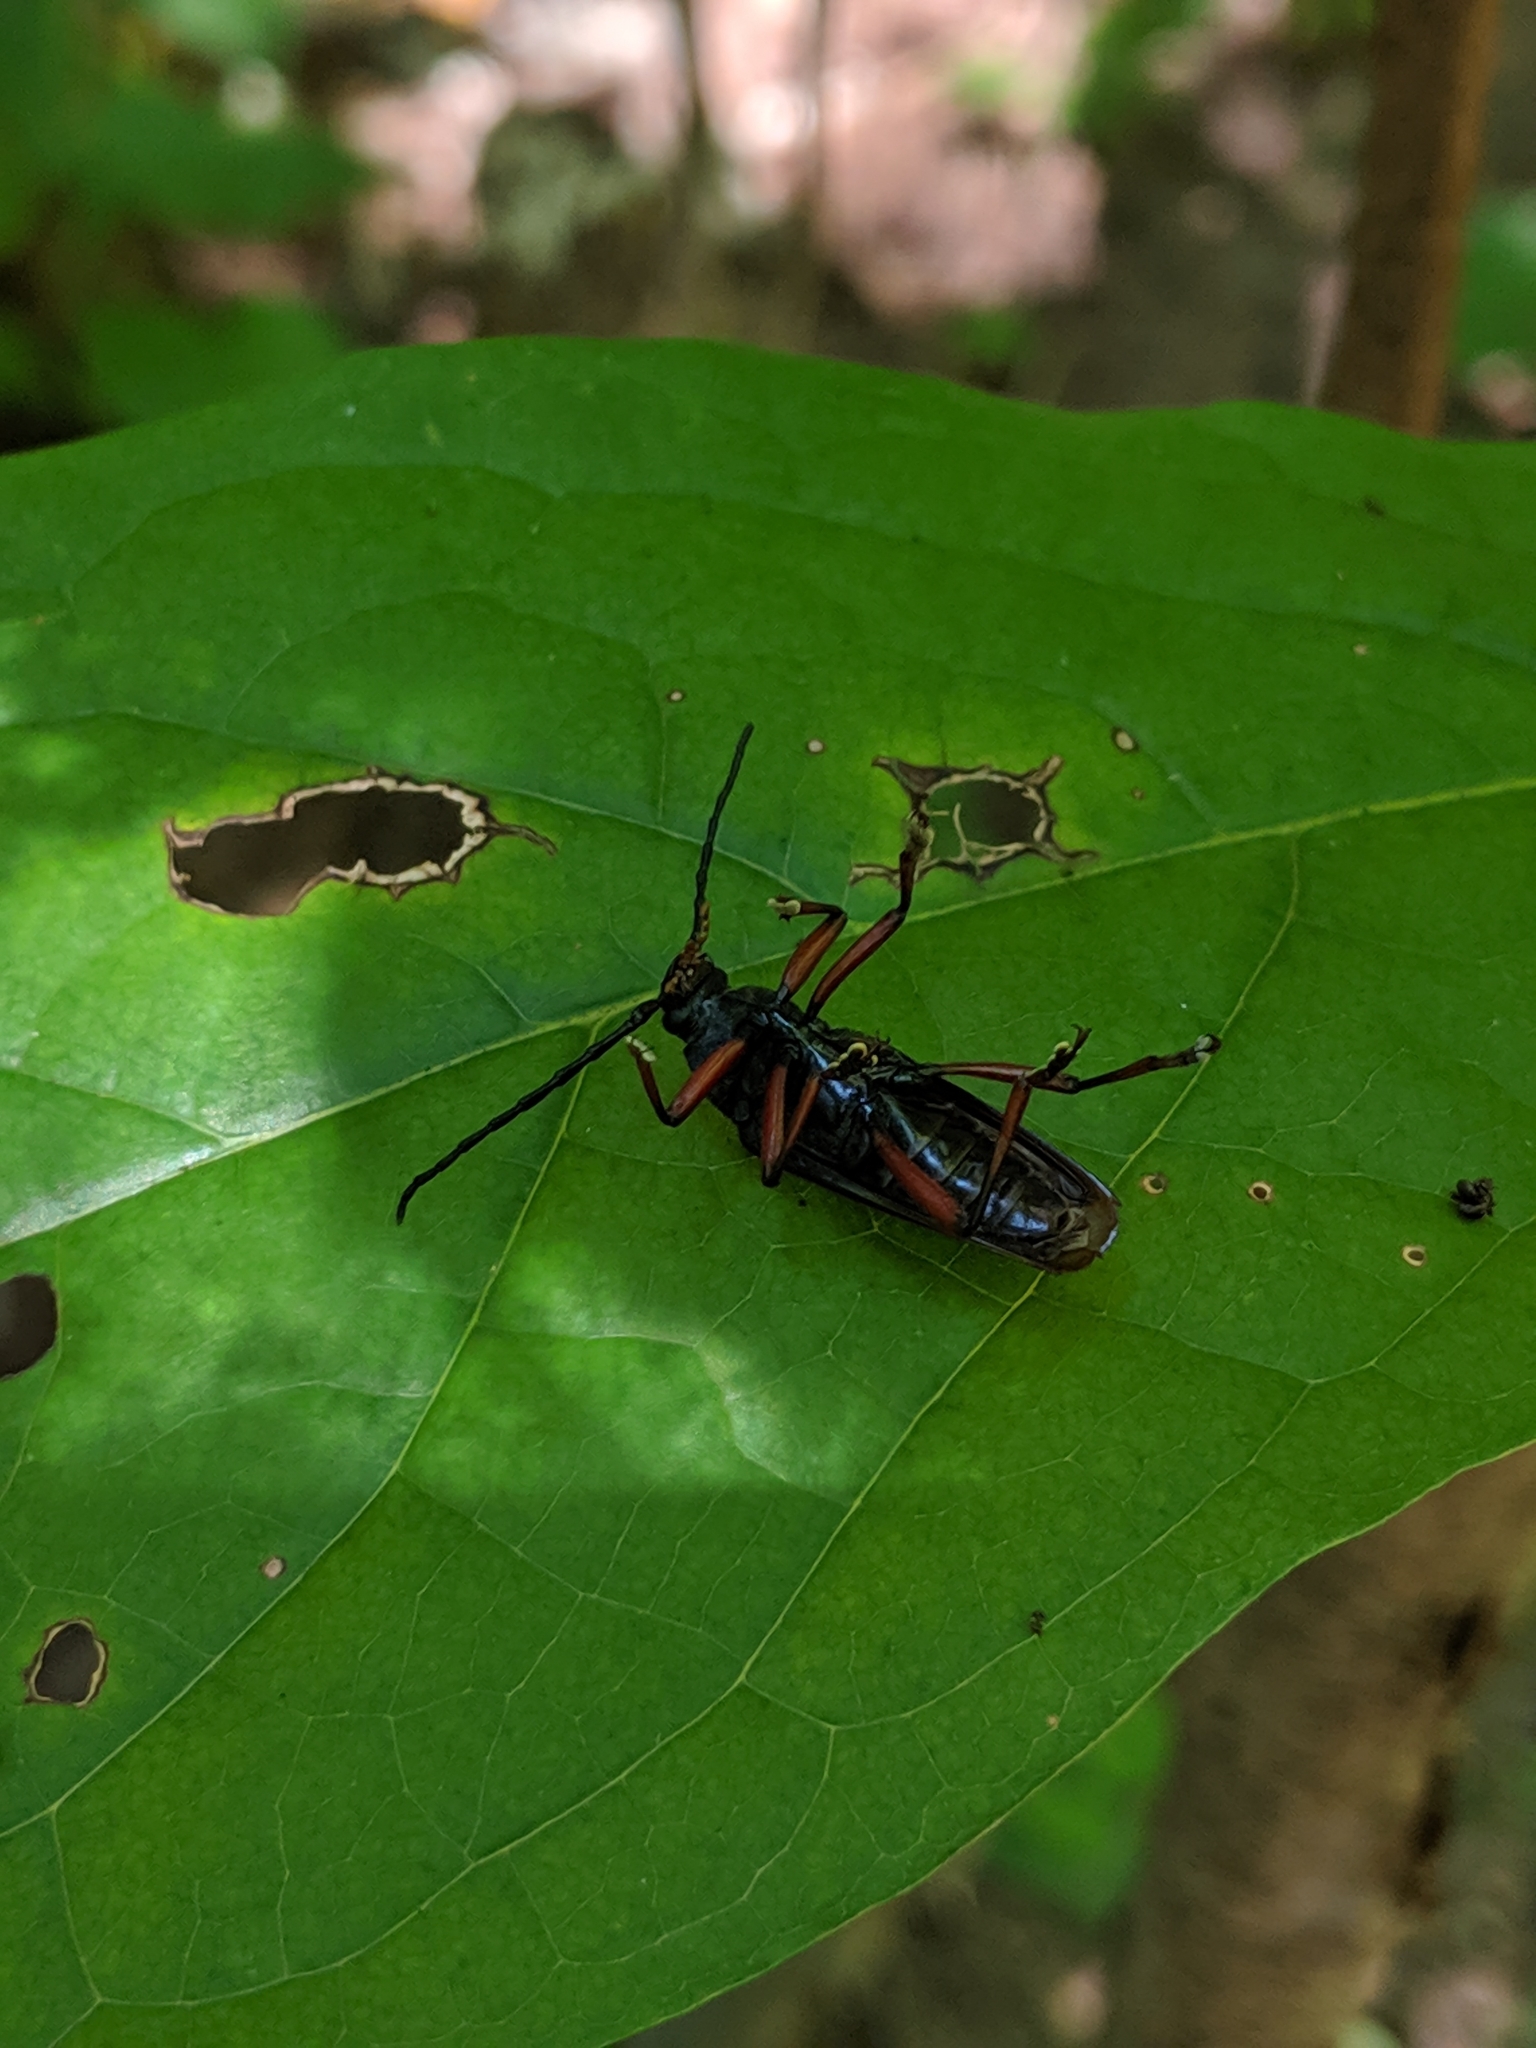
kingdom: Animalia
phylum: Arthropoda
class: Insecta
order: Coleoptera
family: Cerambycidae
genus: Sphenostethus
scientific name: Sphenostethus taslei
